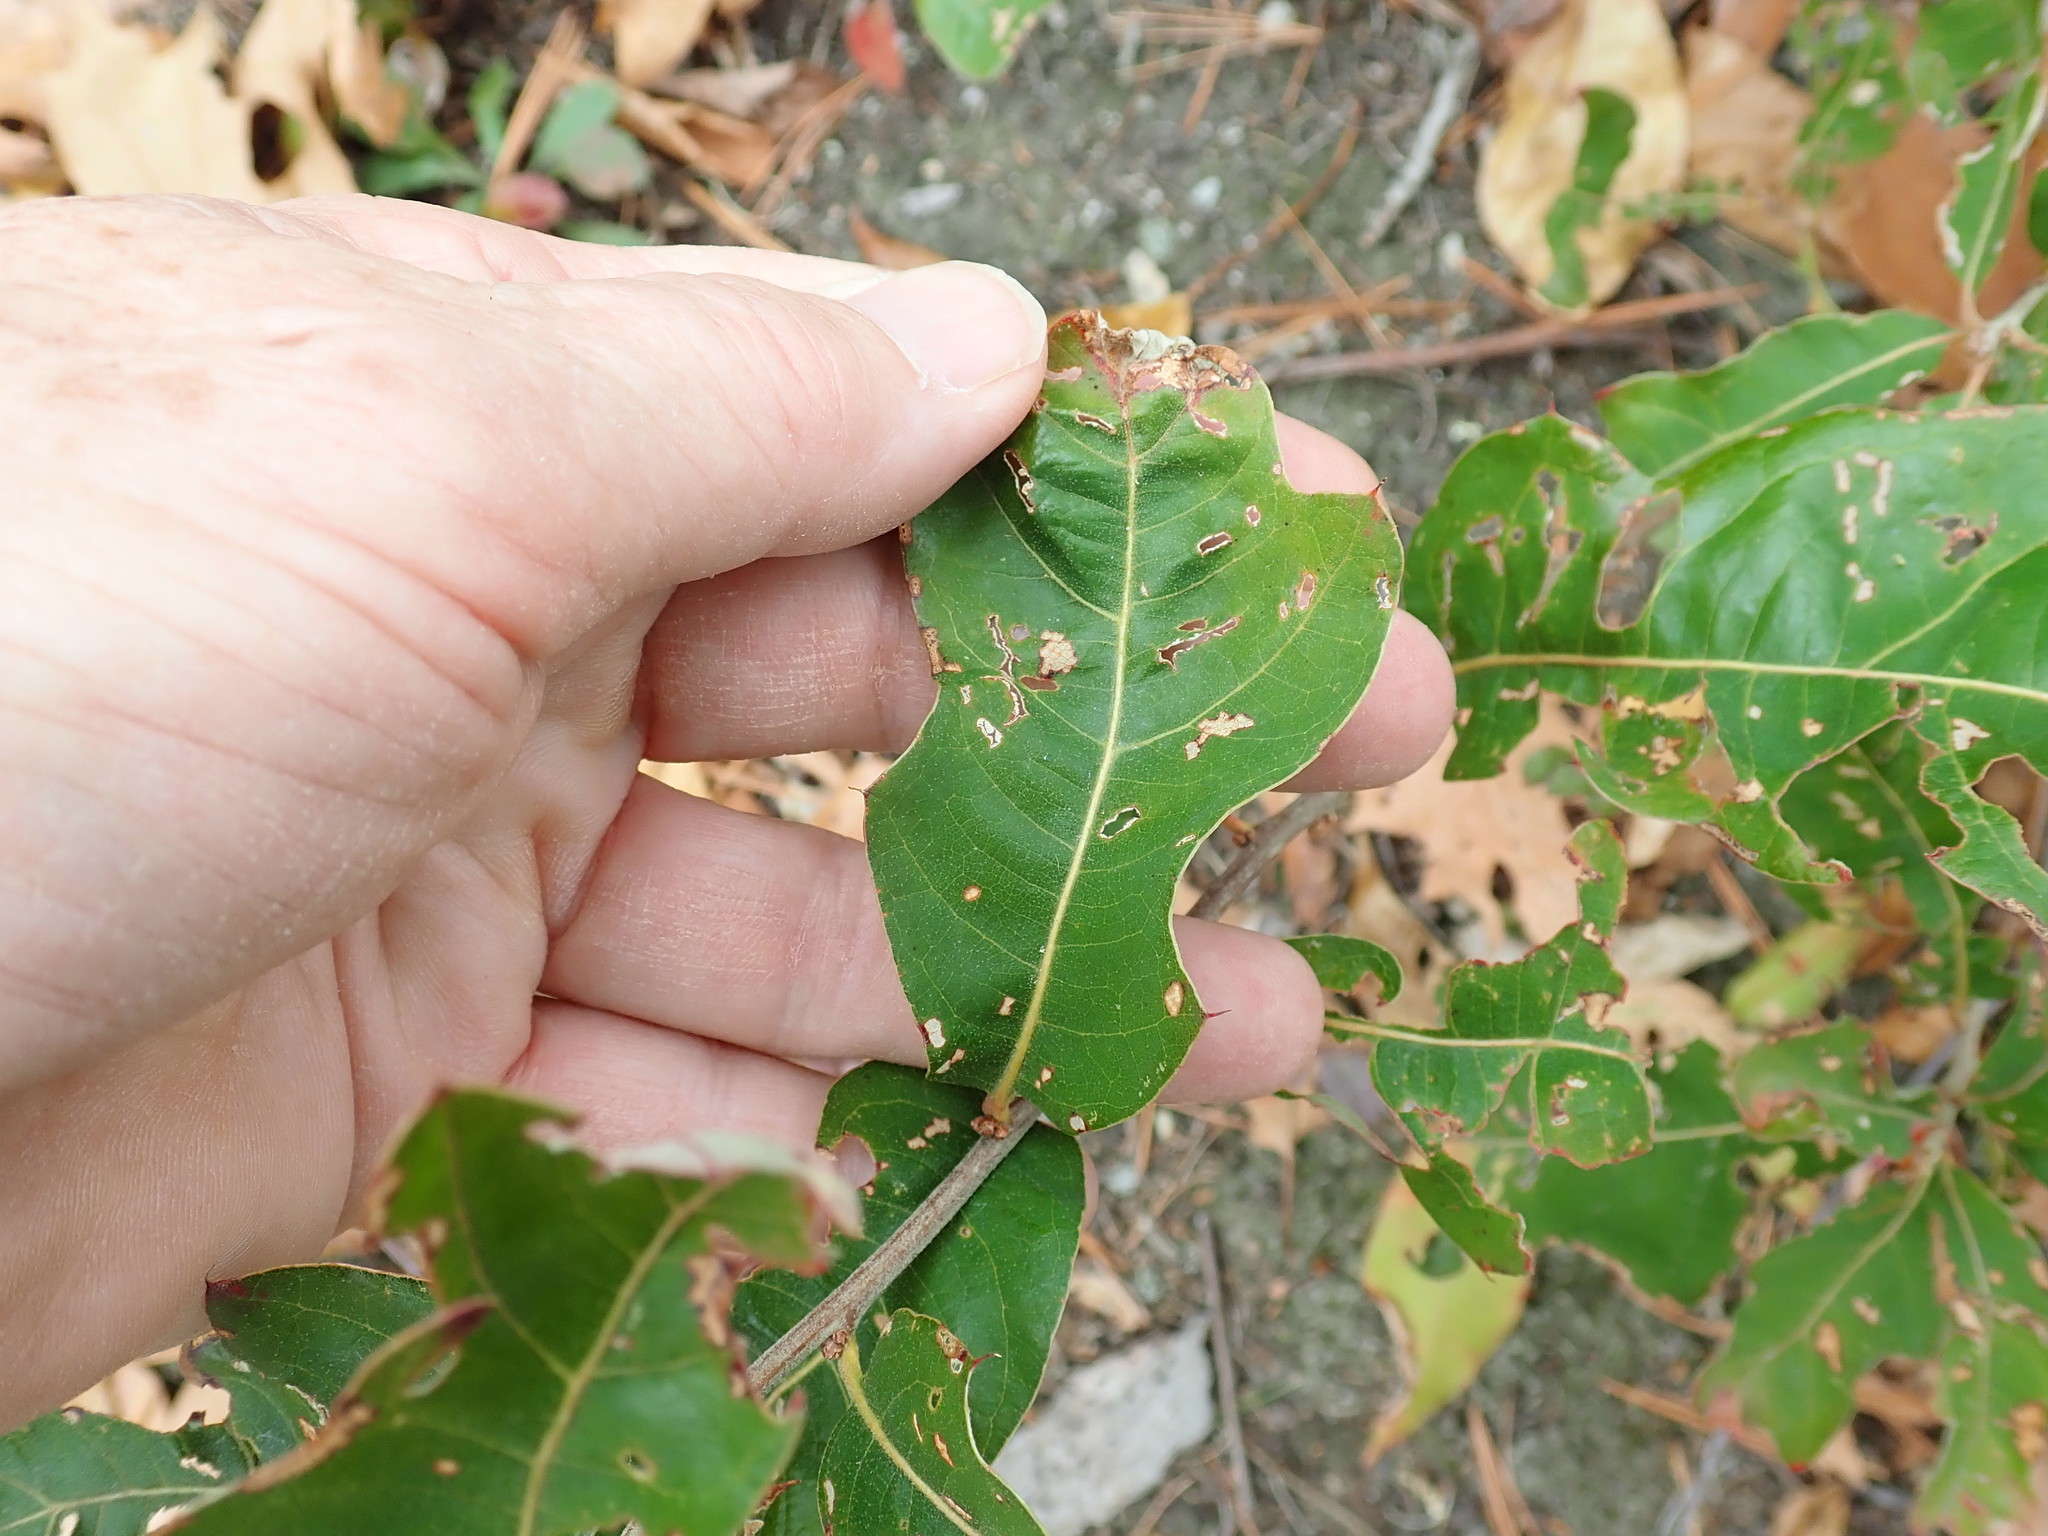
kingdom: Plantae
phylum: Tracheophyta
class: Magnoliopsida
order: Fagales
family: Fagaceae
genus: Quercus
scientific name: Quercus ilicifolia
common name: Bear oak
